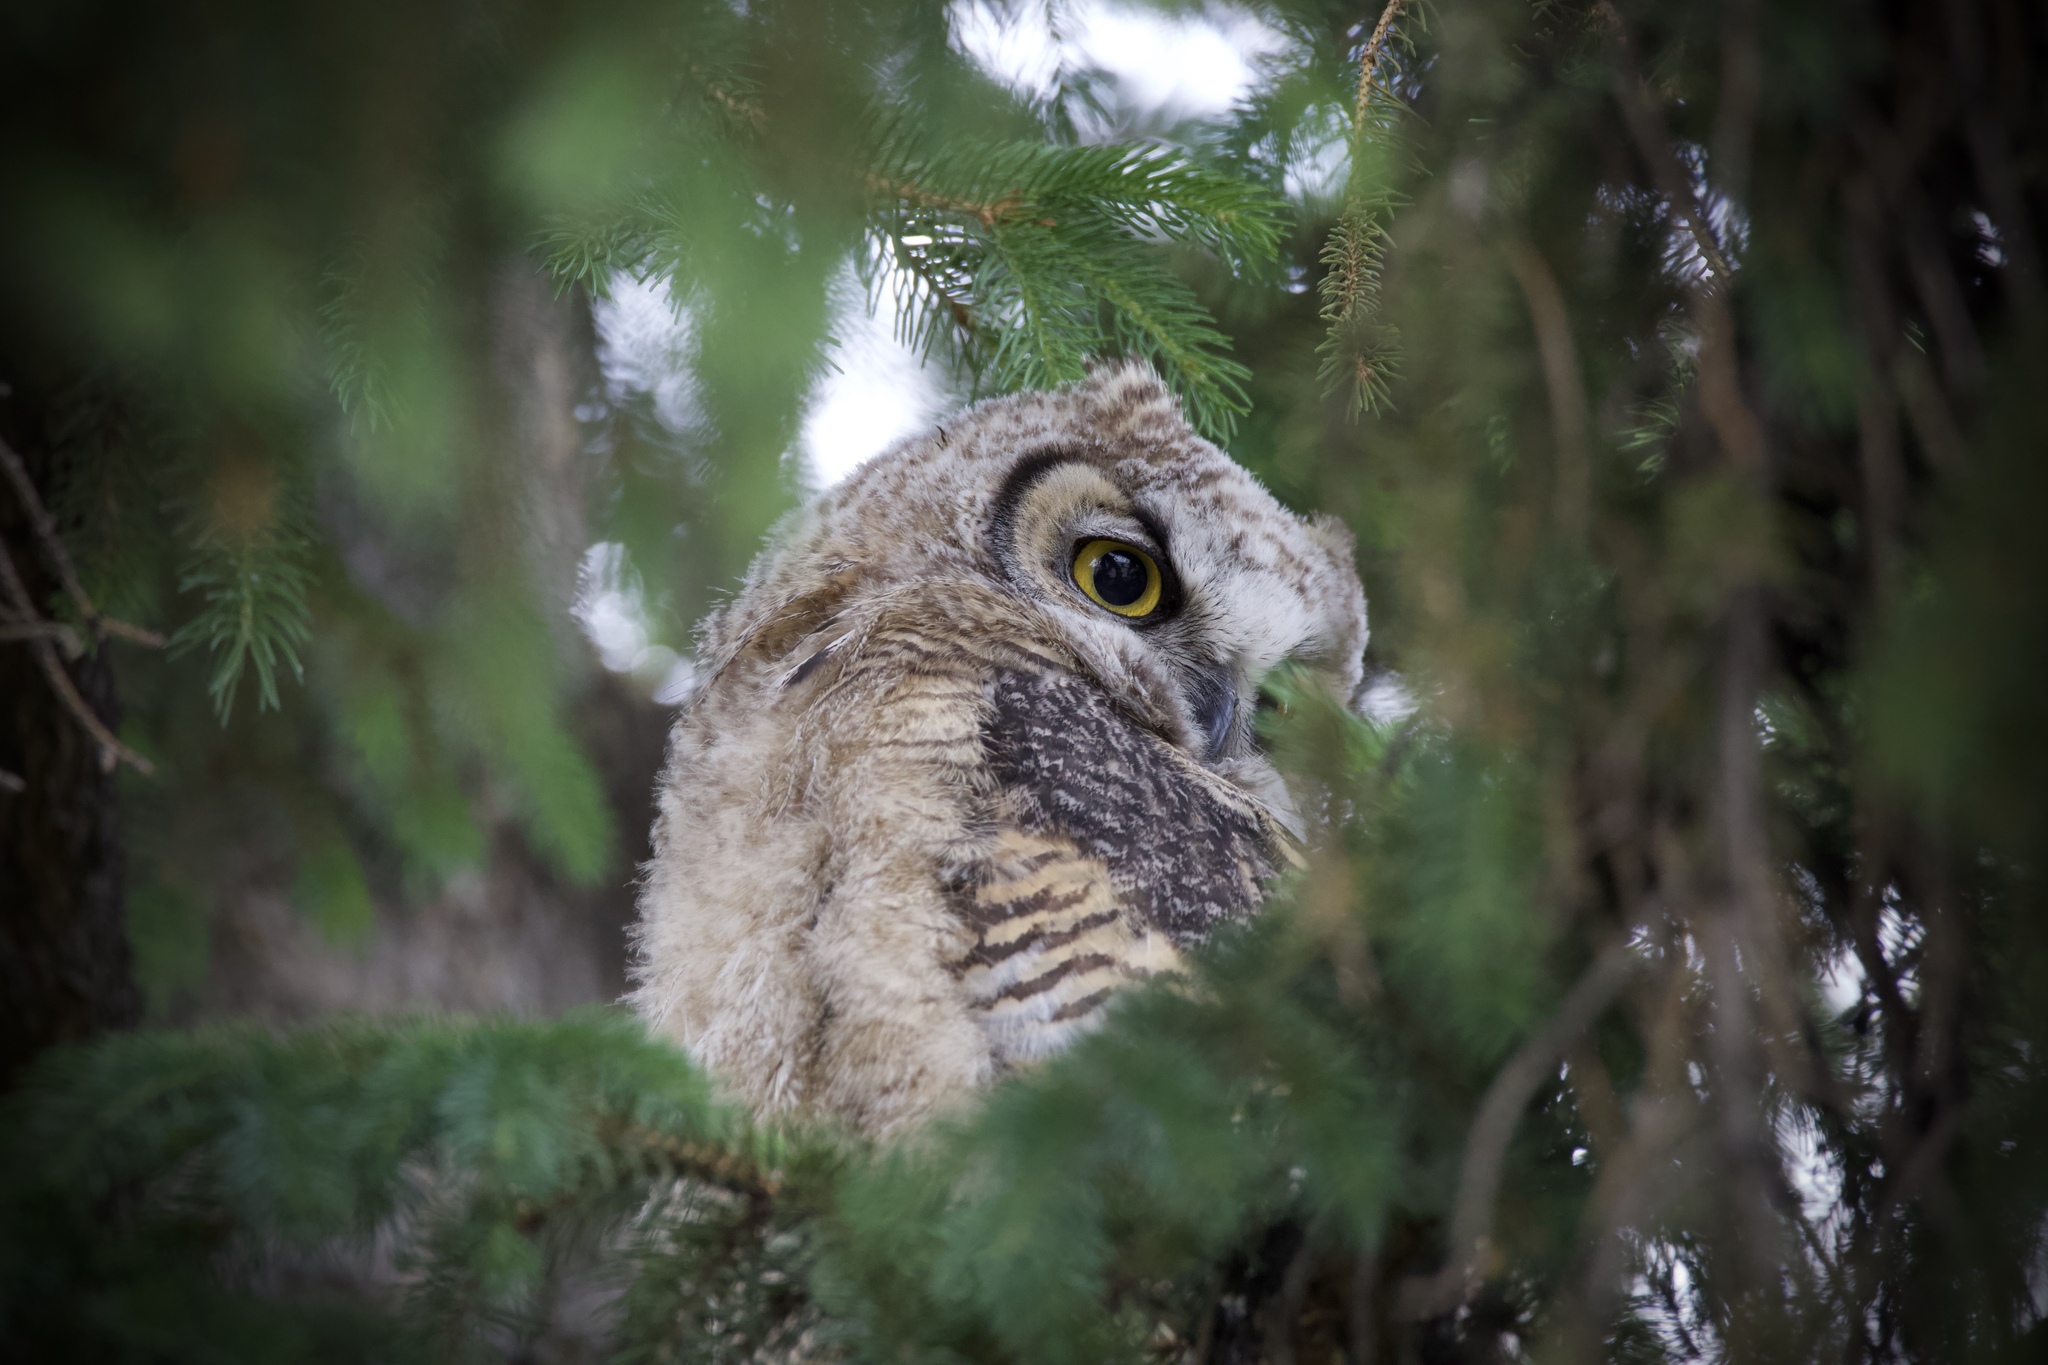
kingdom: Animalia
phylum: Chordata
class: Aves
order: Strigiformes
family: Strigidae
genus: Bubo
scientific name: Bubo virginianus
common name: Great horned owl
